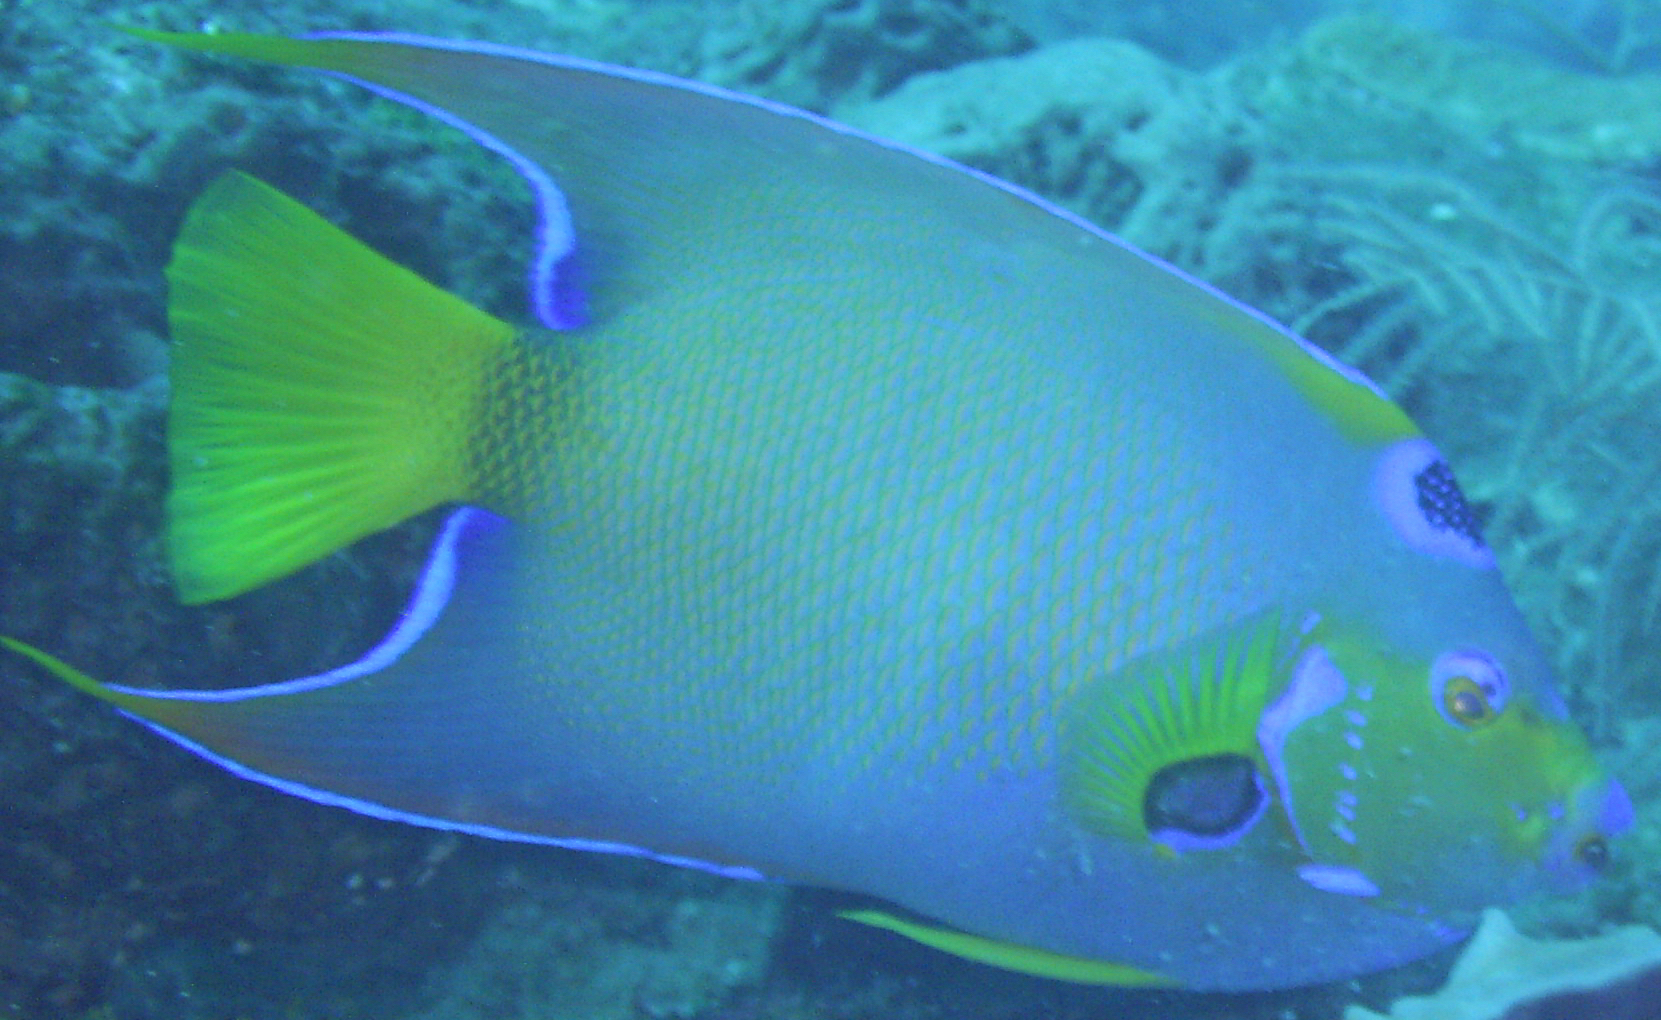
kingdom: Animalia
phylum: Chordata
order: Perciformes
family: Pomacanthidae
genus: Holacanthus
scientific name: Holacanthus ciliaris
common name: Queen angelfish
